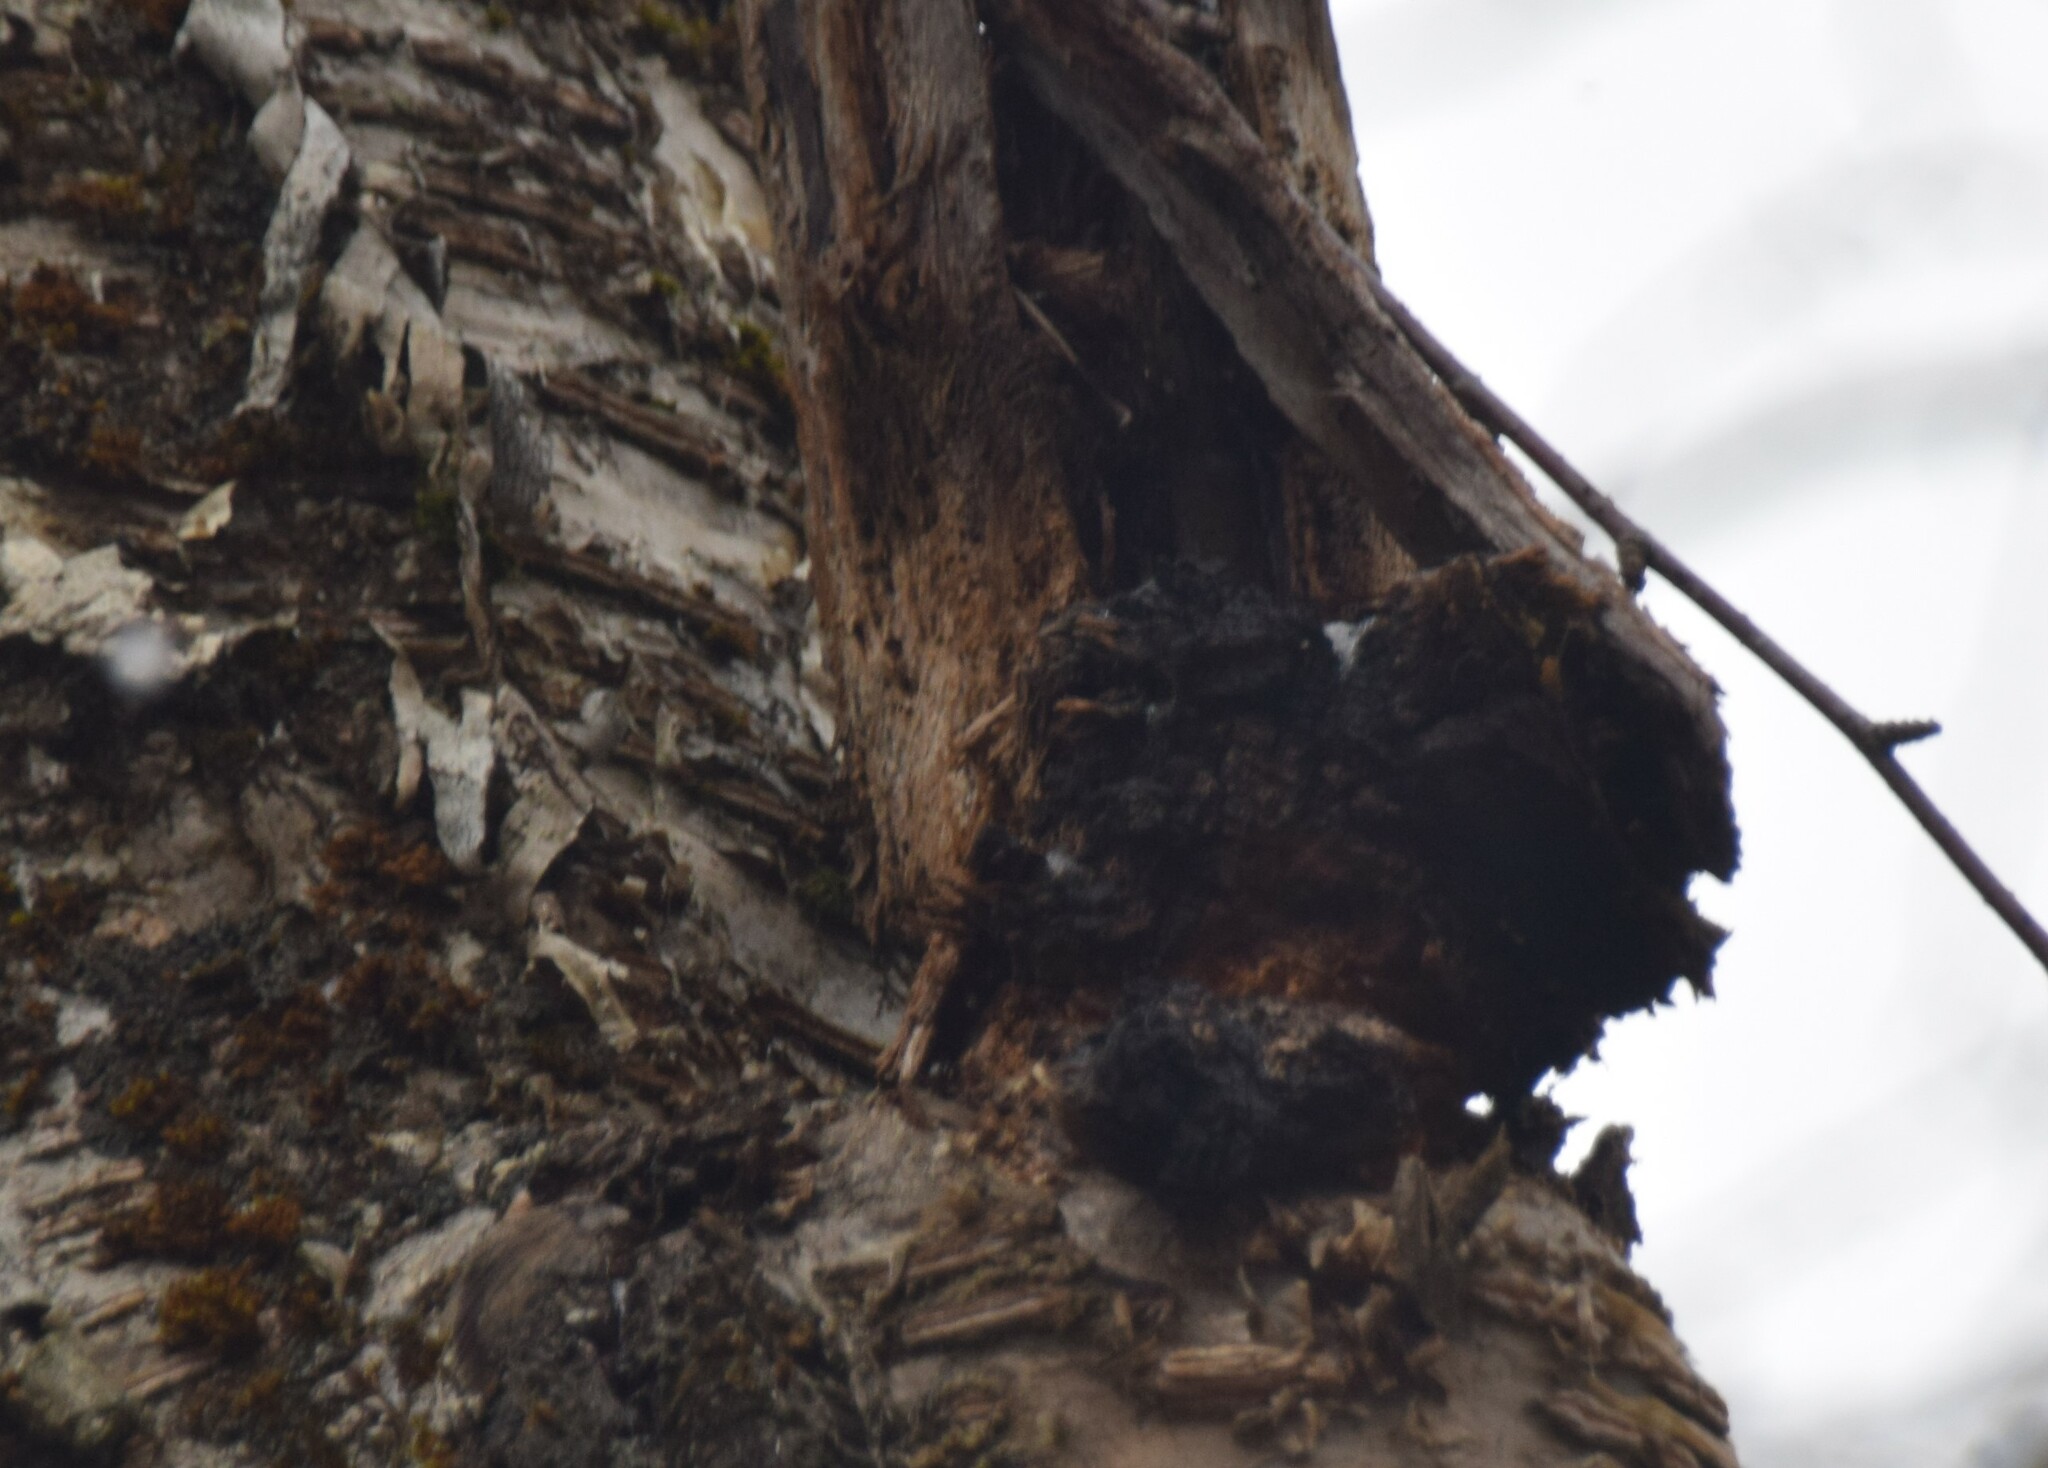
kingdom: Fungi
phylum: Basidiomycota
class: Agaricomycetes
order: Hymenochaetales
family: Hymenochaetaceae
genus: Inonotus
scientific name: Inonotus obliquus
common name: Chaga
